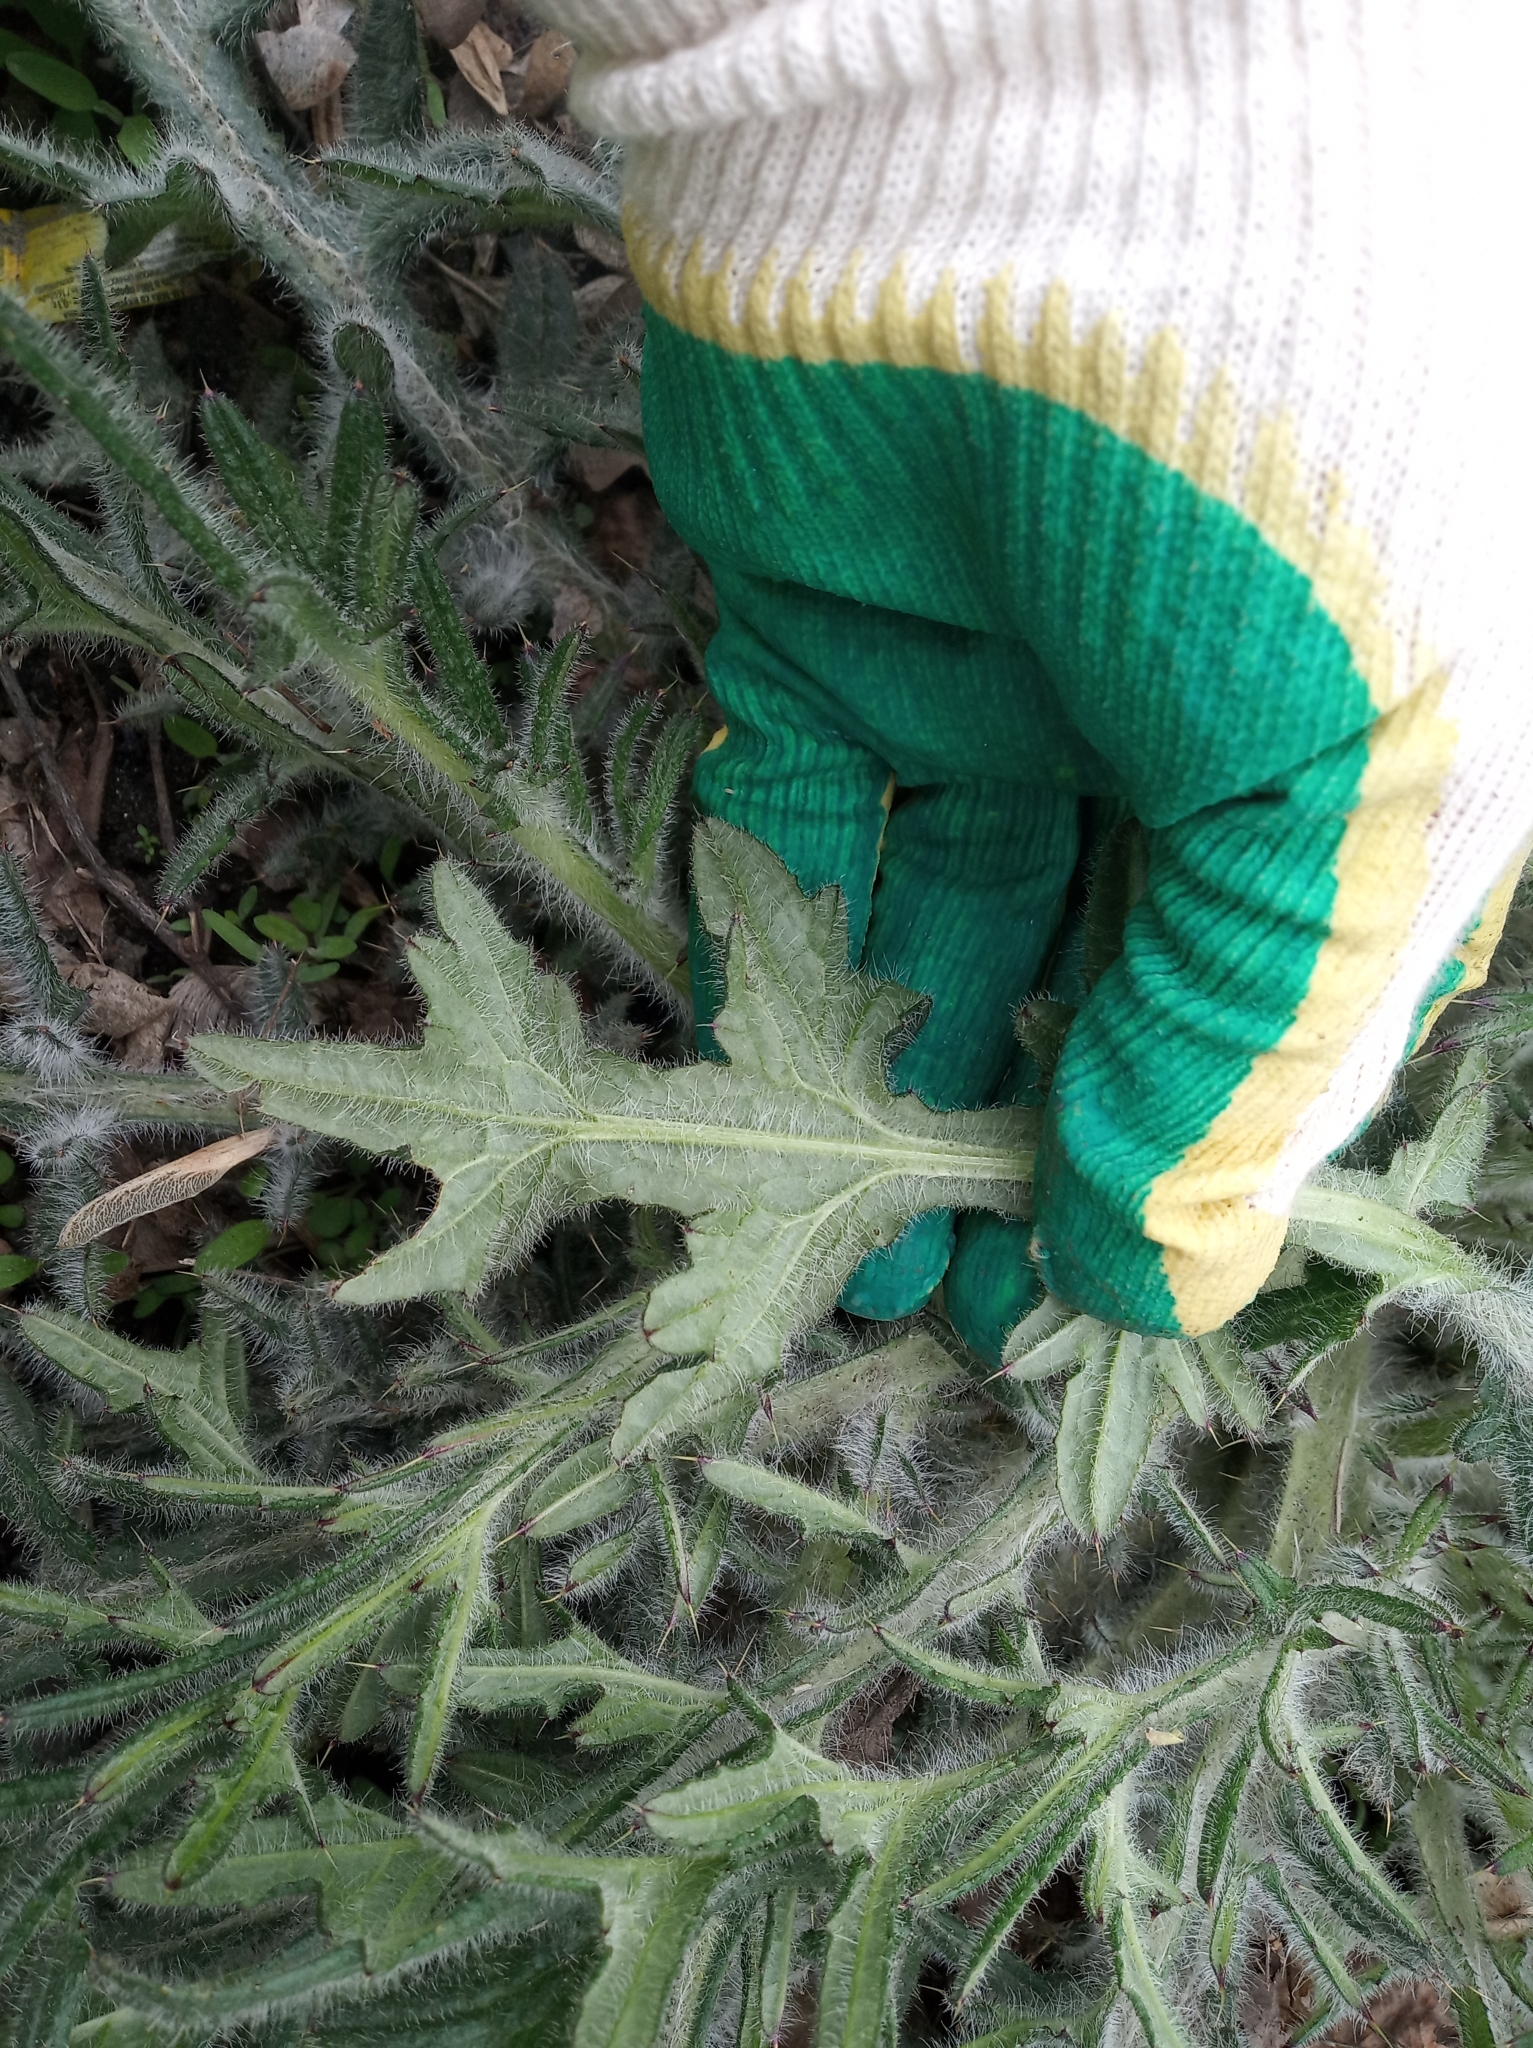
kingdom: Plantae
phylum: Tracheophyta
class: Magnoliopsida
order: Asterales
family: Asteraceae
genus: Cirsium
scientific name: Cirsium vulgare
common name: Bull thistle
